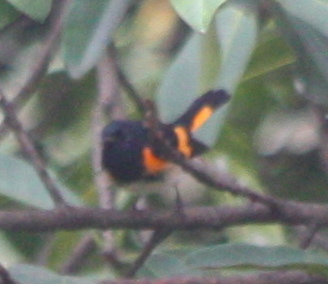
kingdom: Animalia
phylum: Chordata
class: Aves
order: Passeriformes
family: Parulidae
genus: Setophaga
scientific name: Setophaga ruticilla
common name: American redstart
